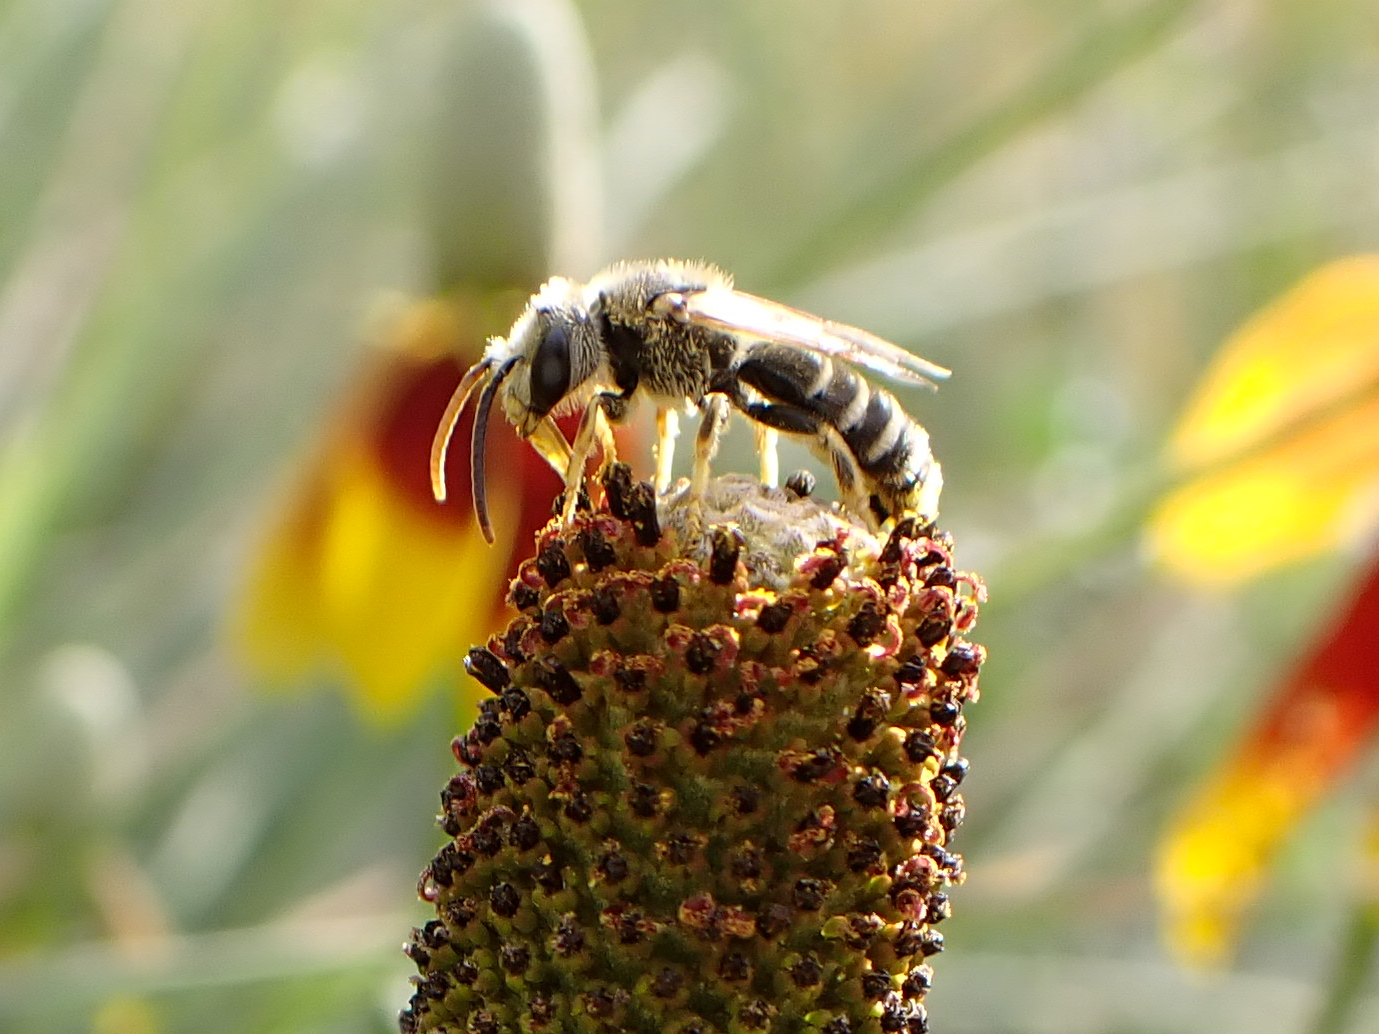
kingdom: Animalia
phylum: Arthropoda
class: Insecta
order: Hymenoptera
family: Halictidae
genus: Halictus
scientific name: Halictus ligatus
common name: Ligated furrow bee
